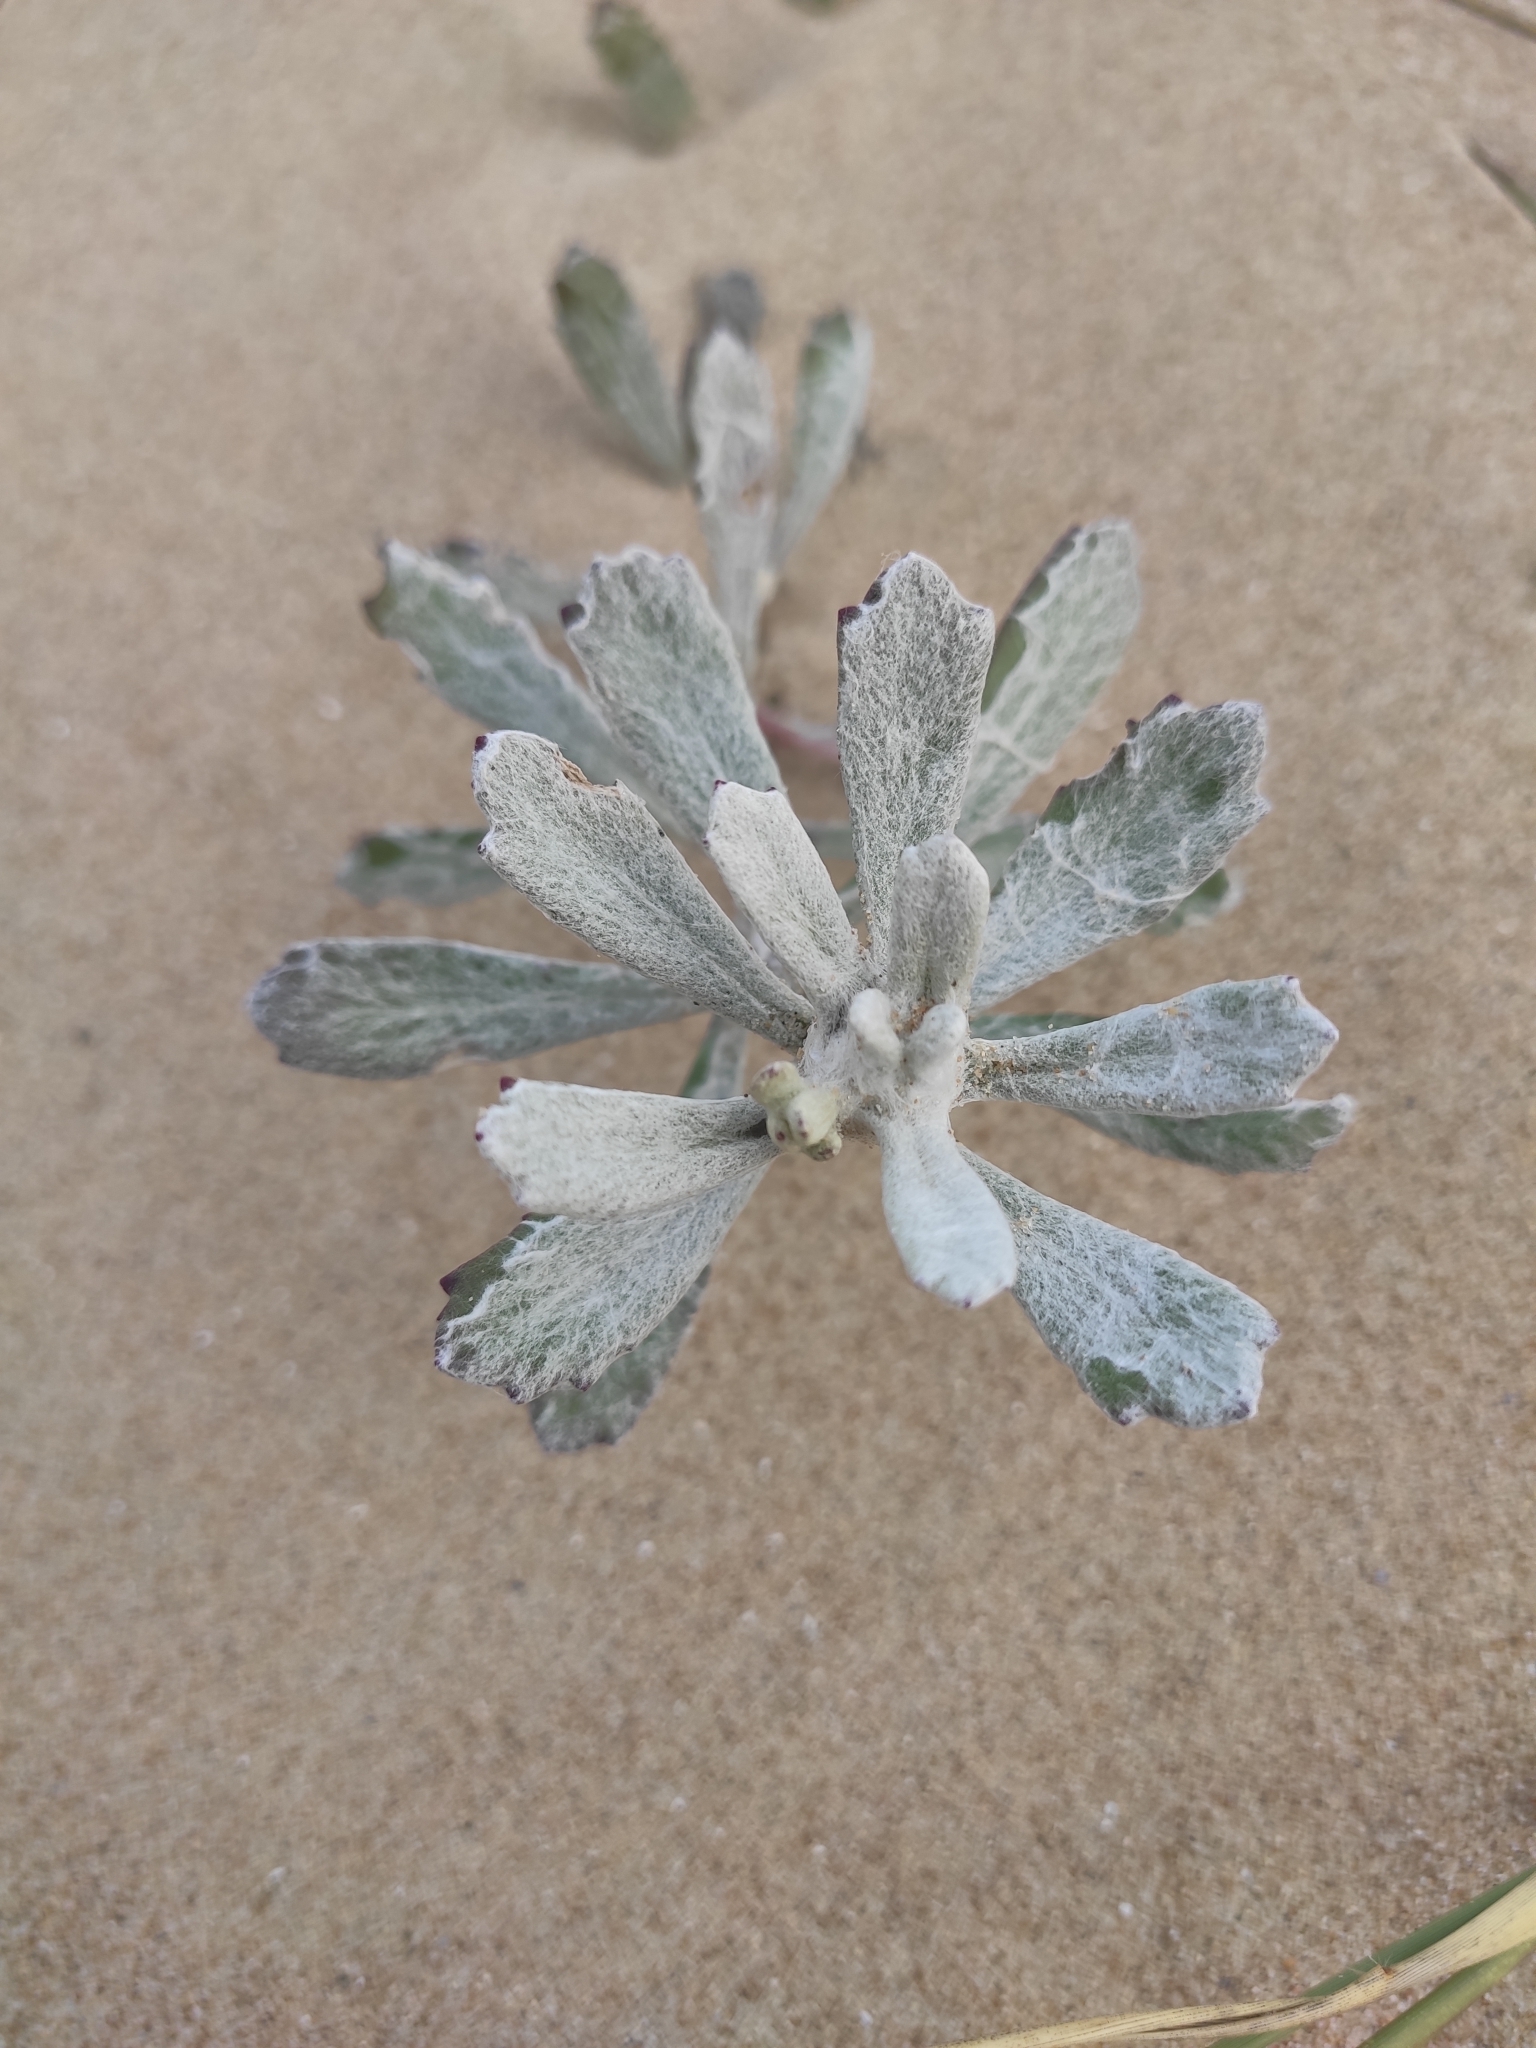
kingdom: Plantae
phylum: Tracheophyta
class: Magnoliopsida
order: Asterales
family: Asteraceae
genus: Senecio
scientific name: Senecio crassiflorus
